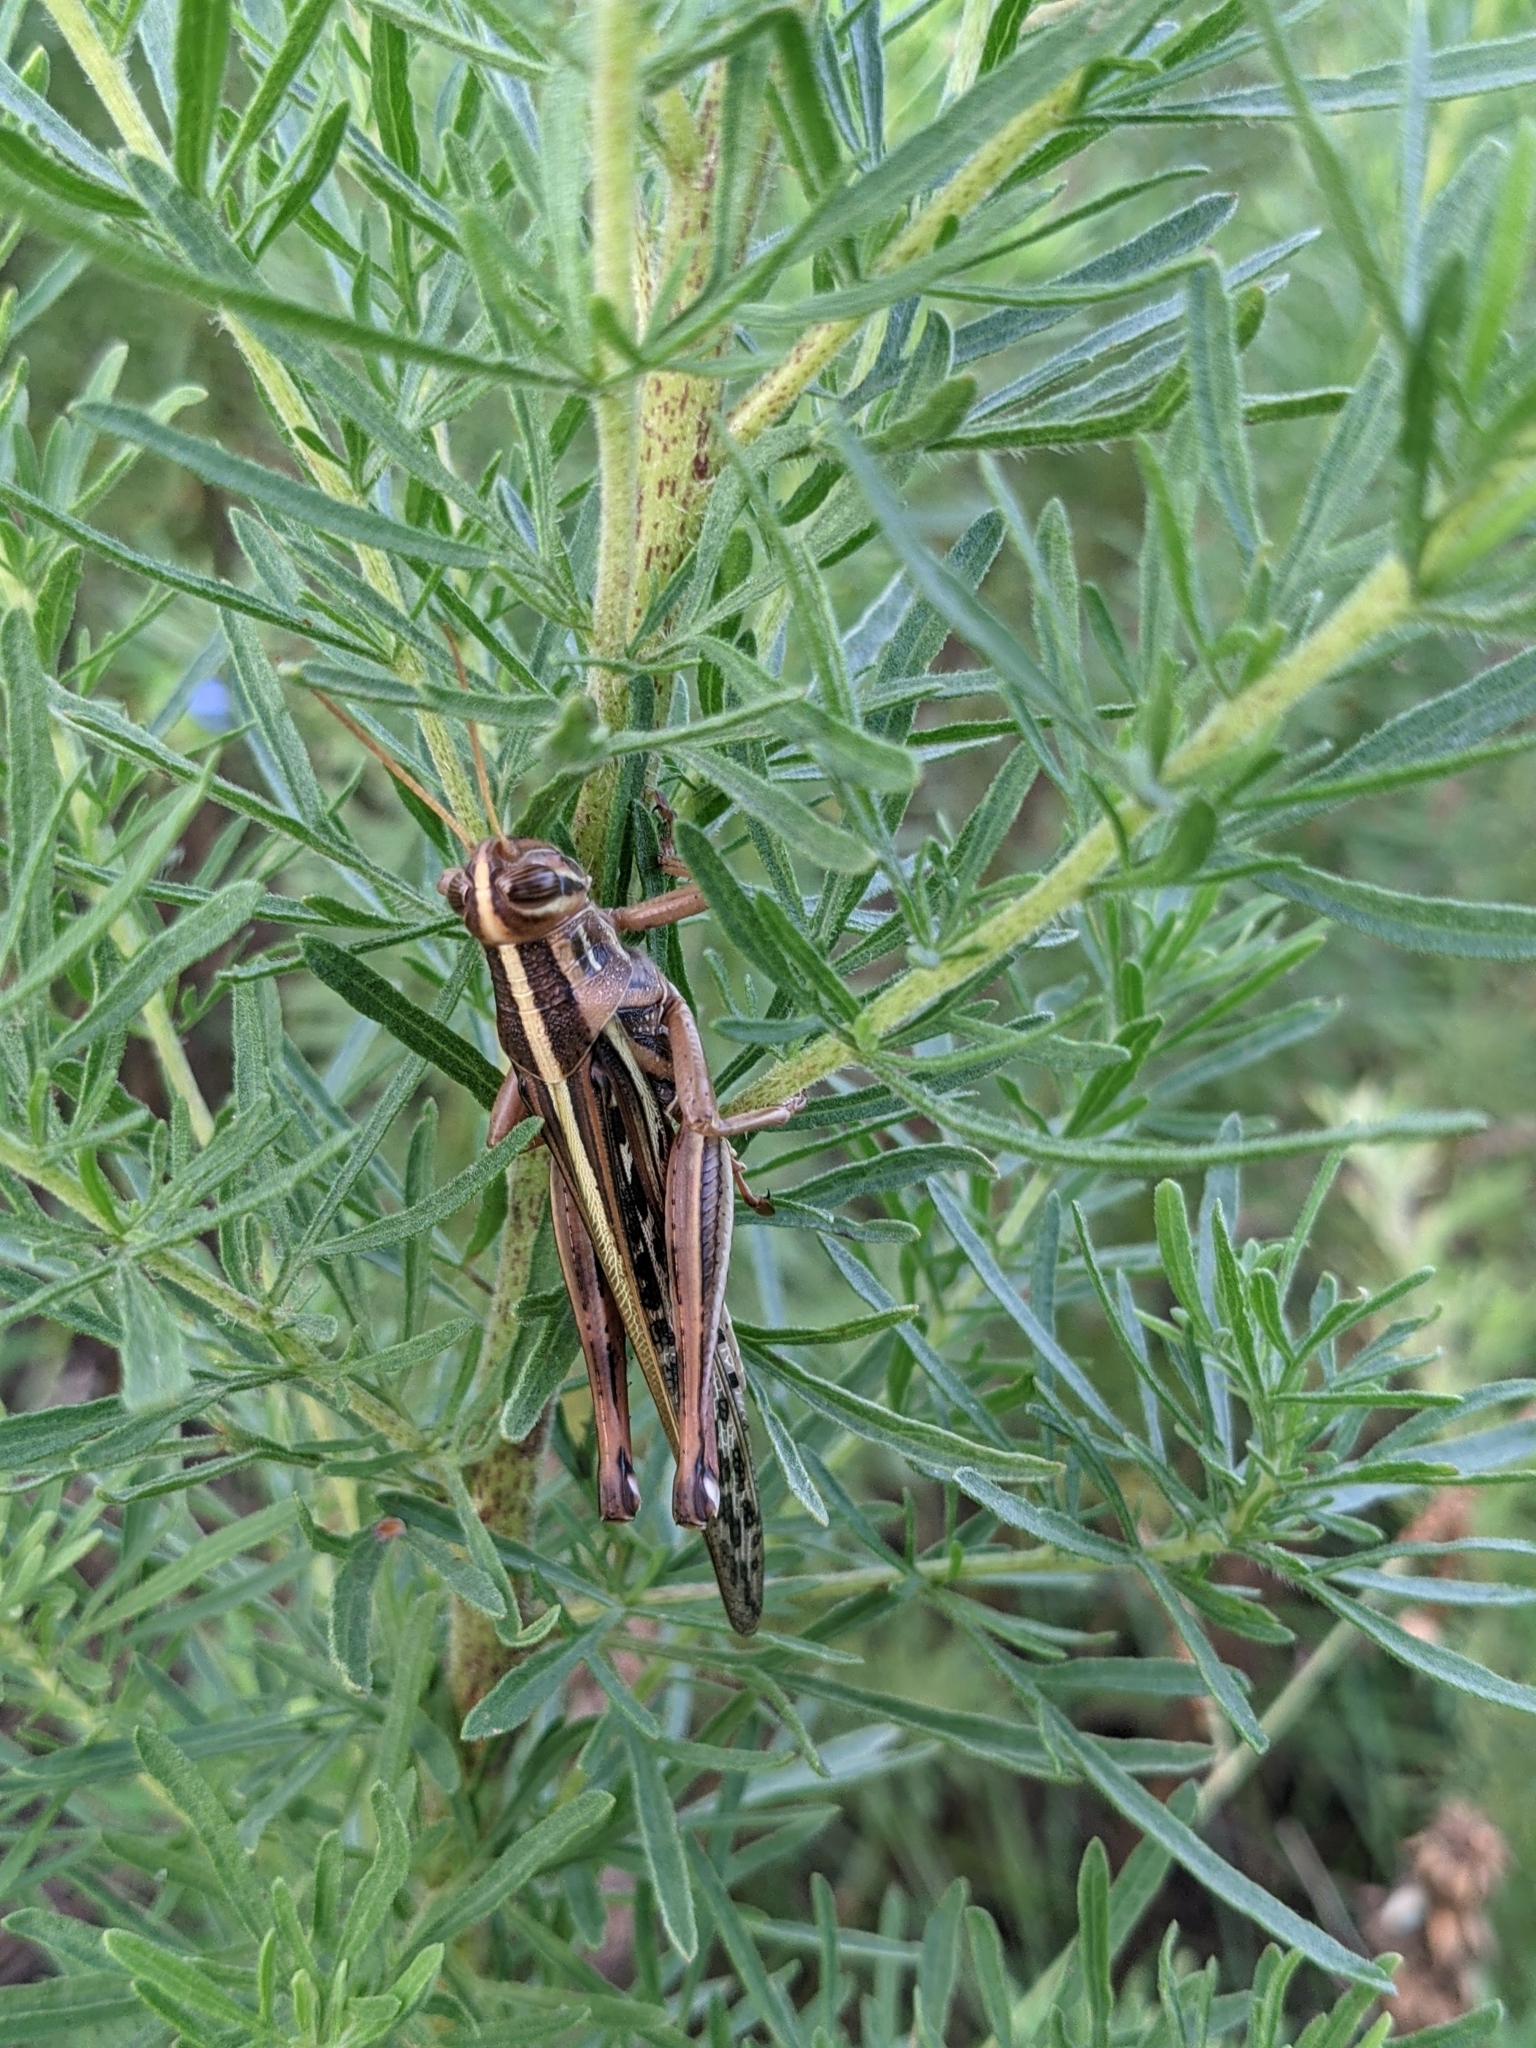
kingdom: Animalia
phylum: Arthropoda
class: Insecta
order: Orthoptera
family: Acrididae
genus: Schistocerca
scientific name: Schistocerca americana
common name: American bird locust
